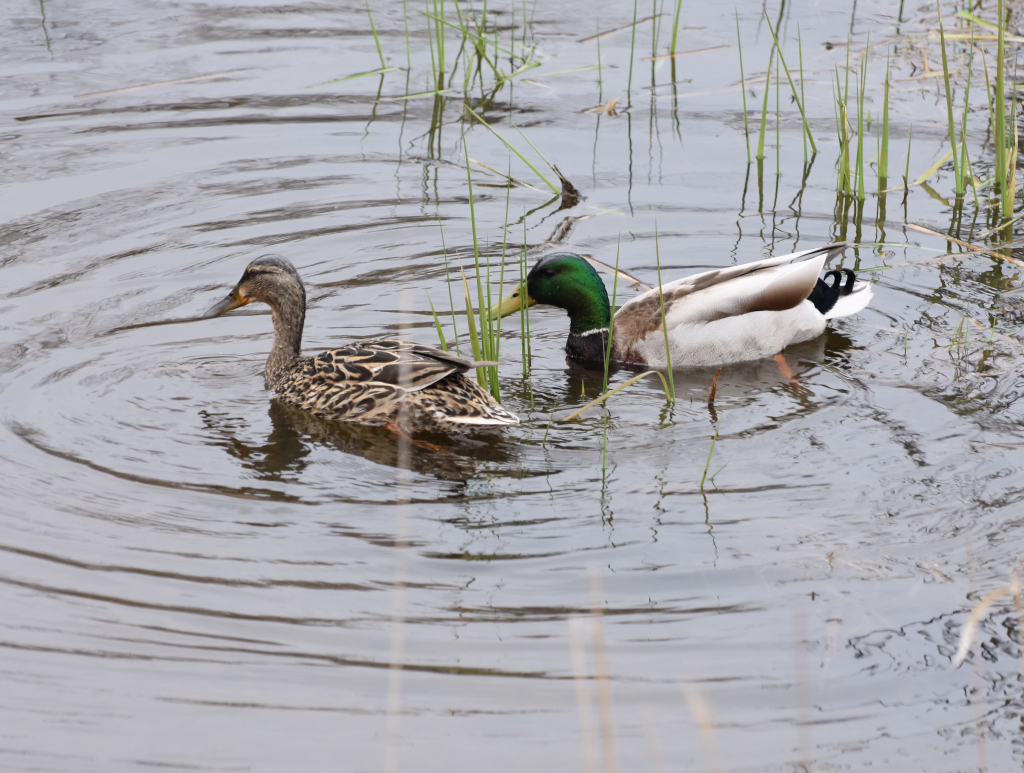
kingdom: Animalia
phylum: Chordata
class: Aves
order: Anseriformes
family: Anatidae
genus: Anas
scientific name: Anas platyrhynchos
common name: Mallard
